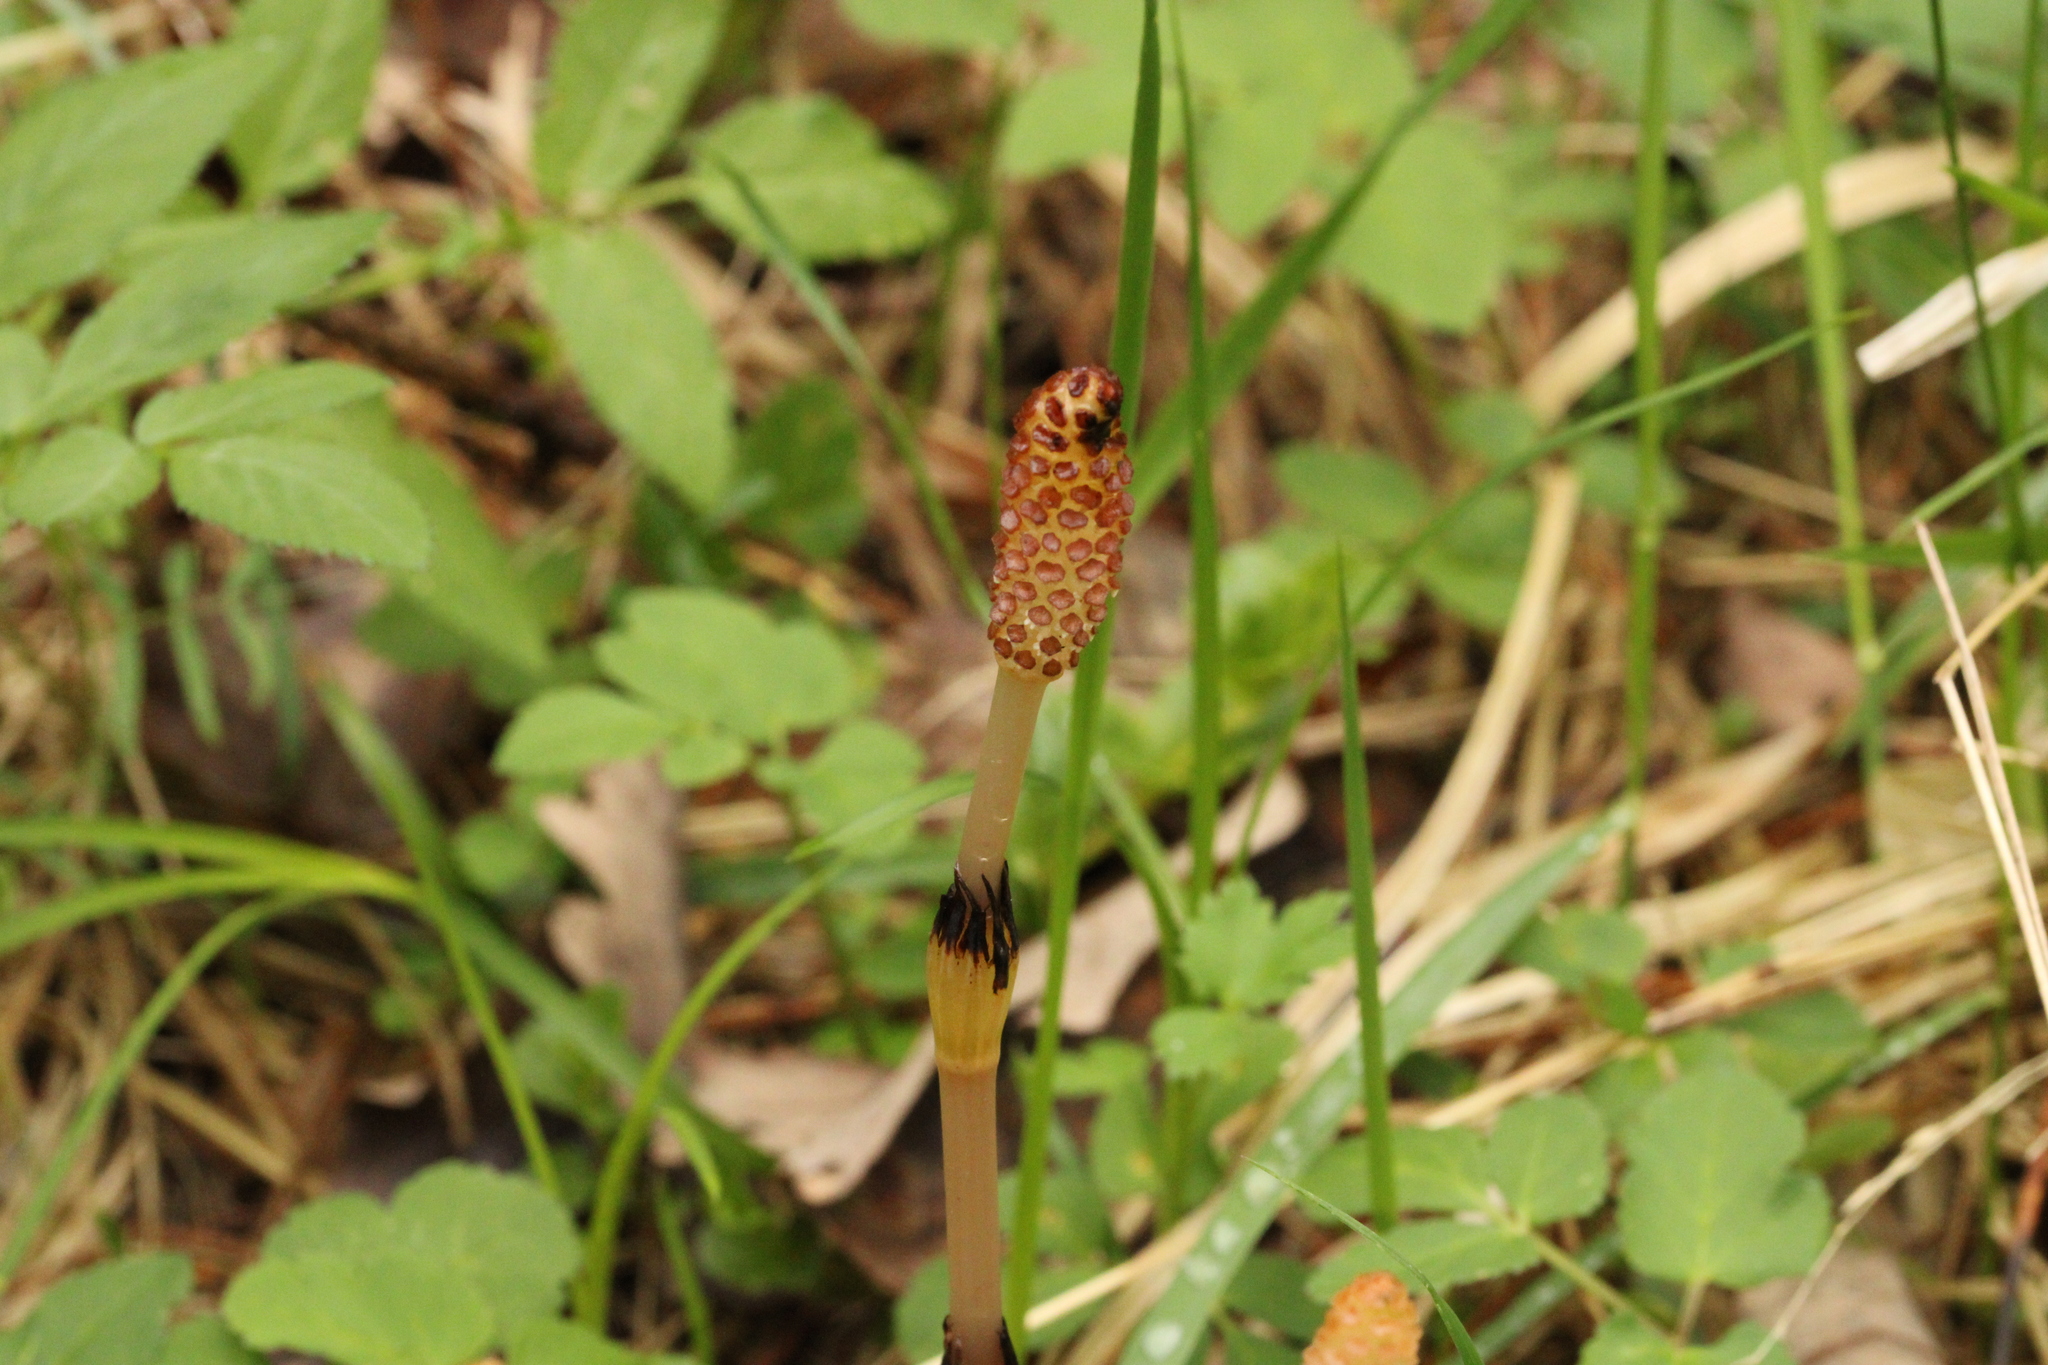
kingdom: Plantae
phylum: Tracheophyta
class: Polypodiopsida
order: Equisetales
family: Equisetaceae
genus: Equisetum
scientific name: Equisetum arvense
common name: Field horsetail
